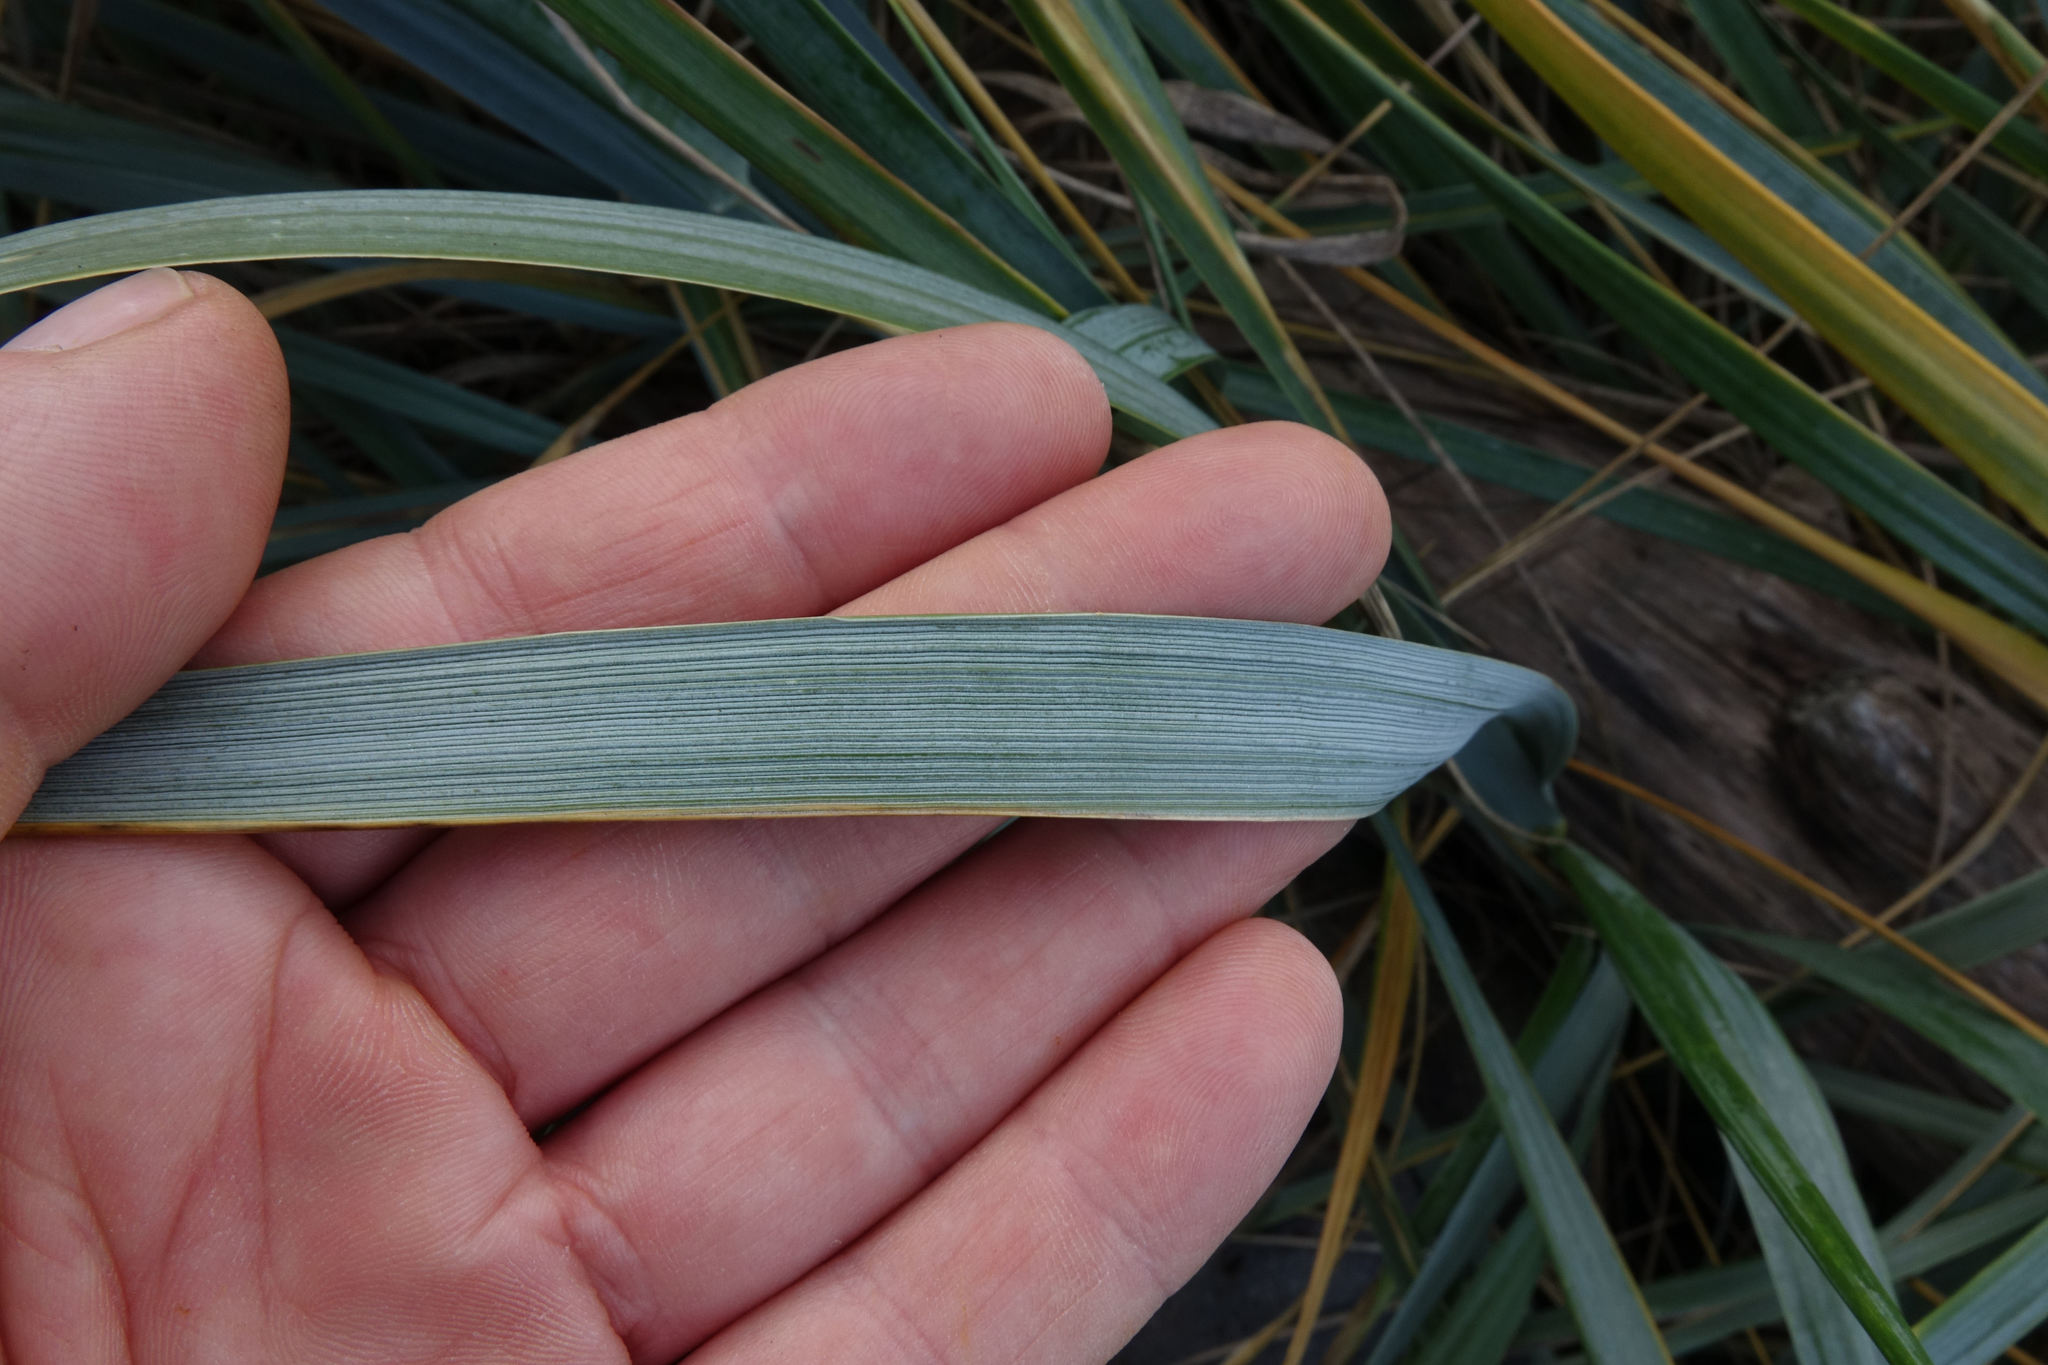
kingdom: Plantae
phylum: Tracheophyta
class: Liliopsida
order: Poales
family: Poaceae
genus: Leymus
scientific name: Leymus arenarius
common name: Lyme-grass
